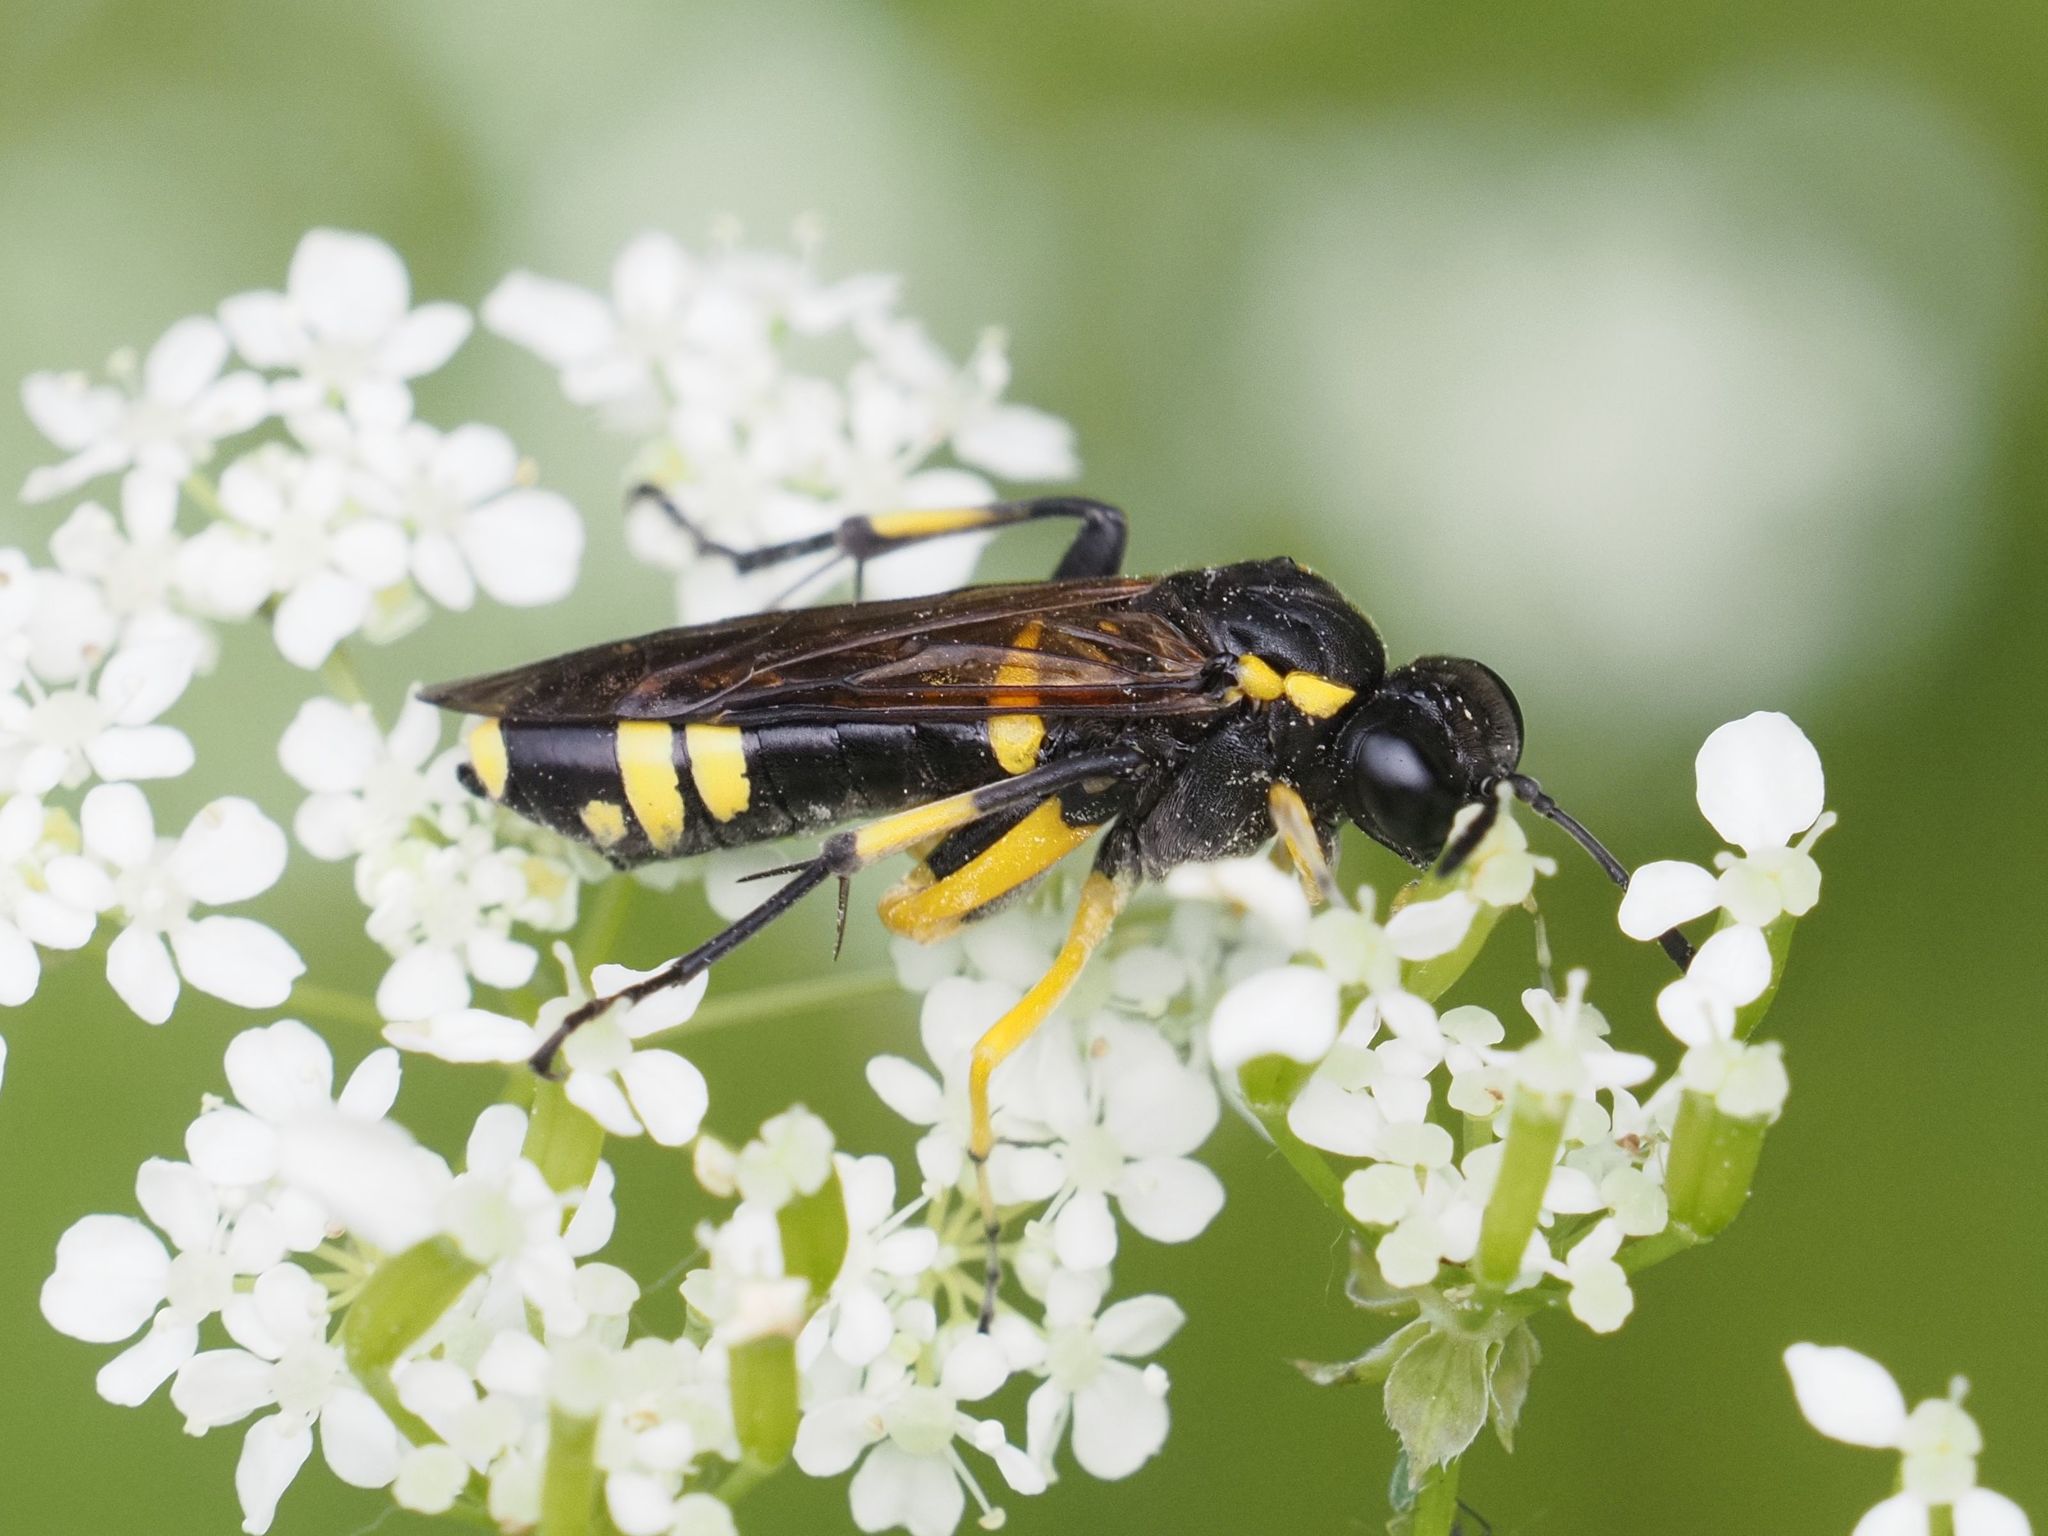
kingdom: Animalia
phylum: Arthropoda
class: Insecta
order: Hymenoptera
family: Tenthredinidae
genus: Macrophya
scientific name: Macrophya montana
